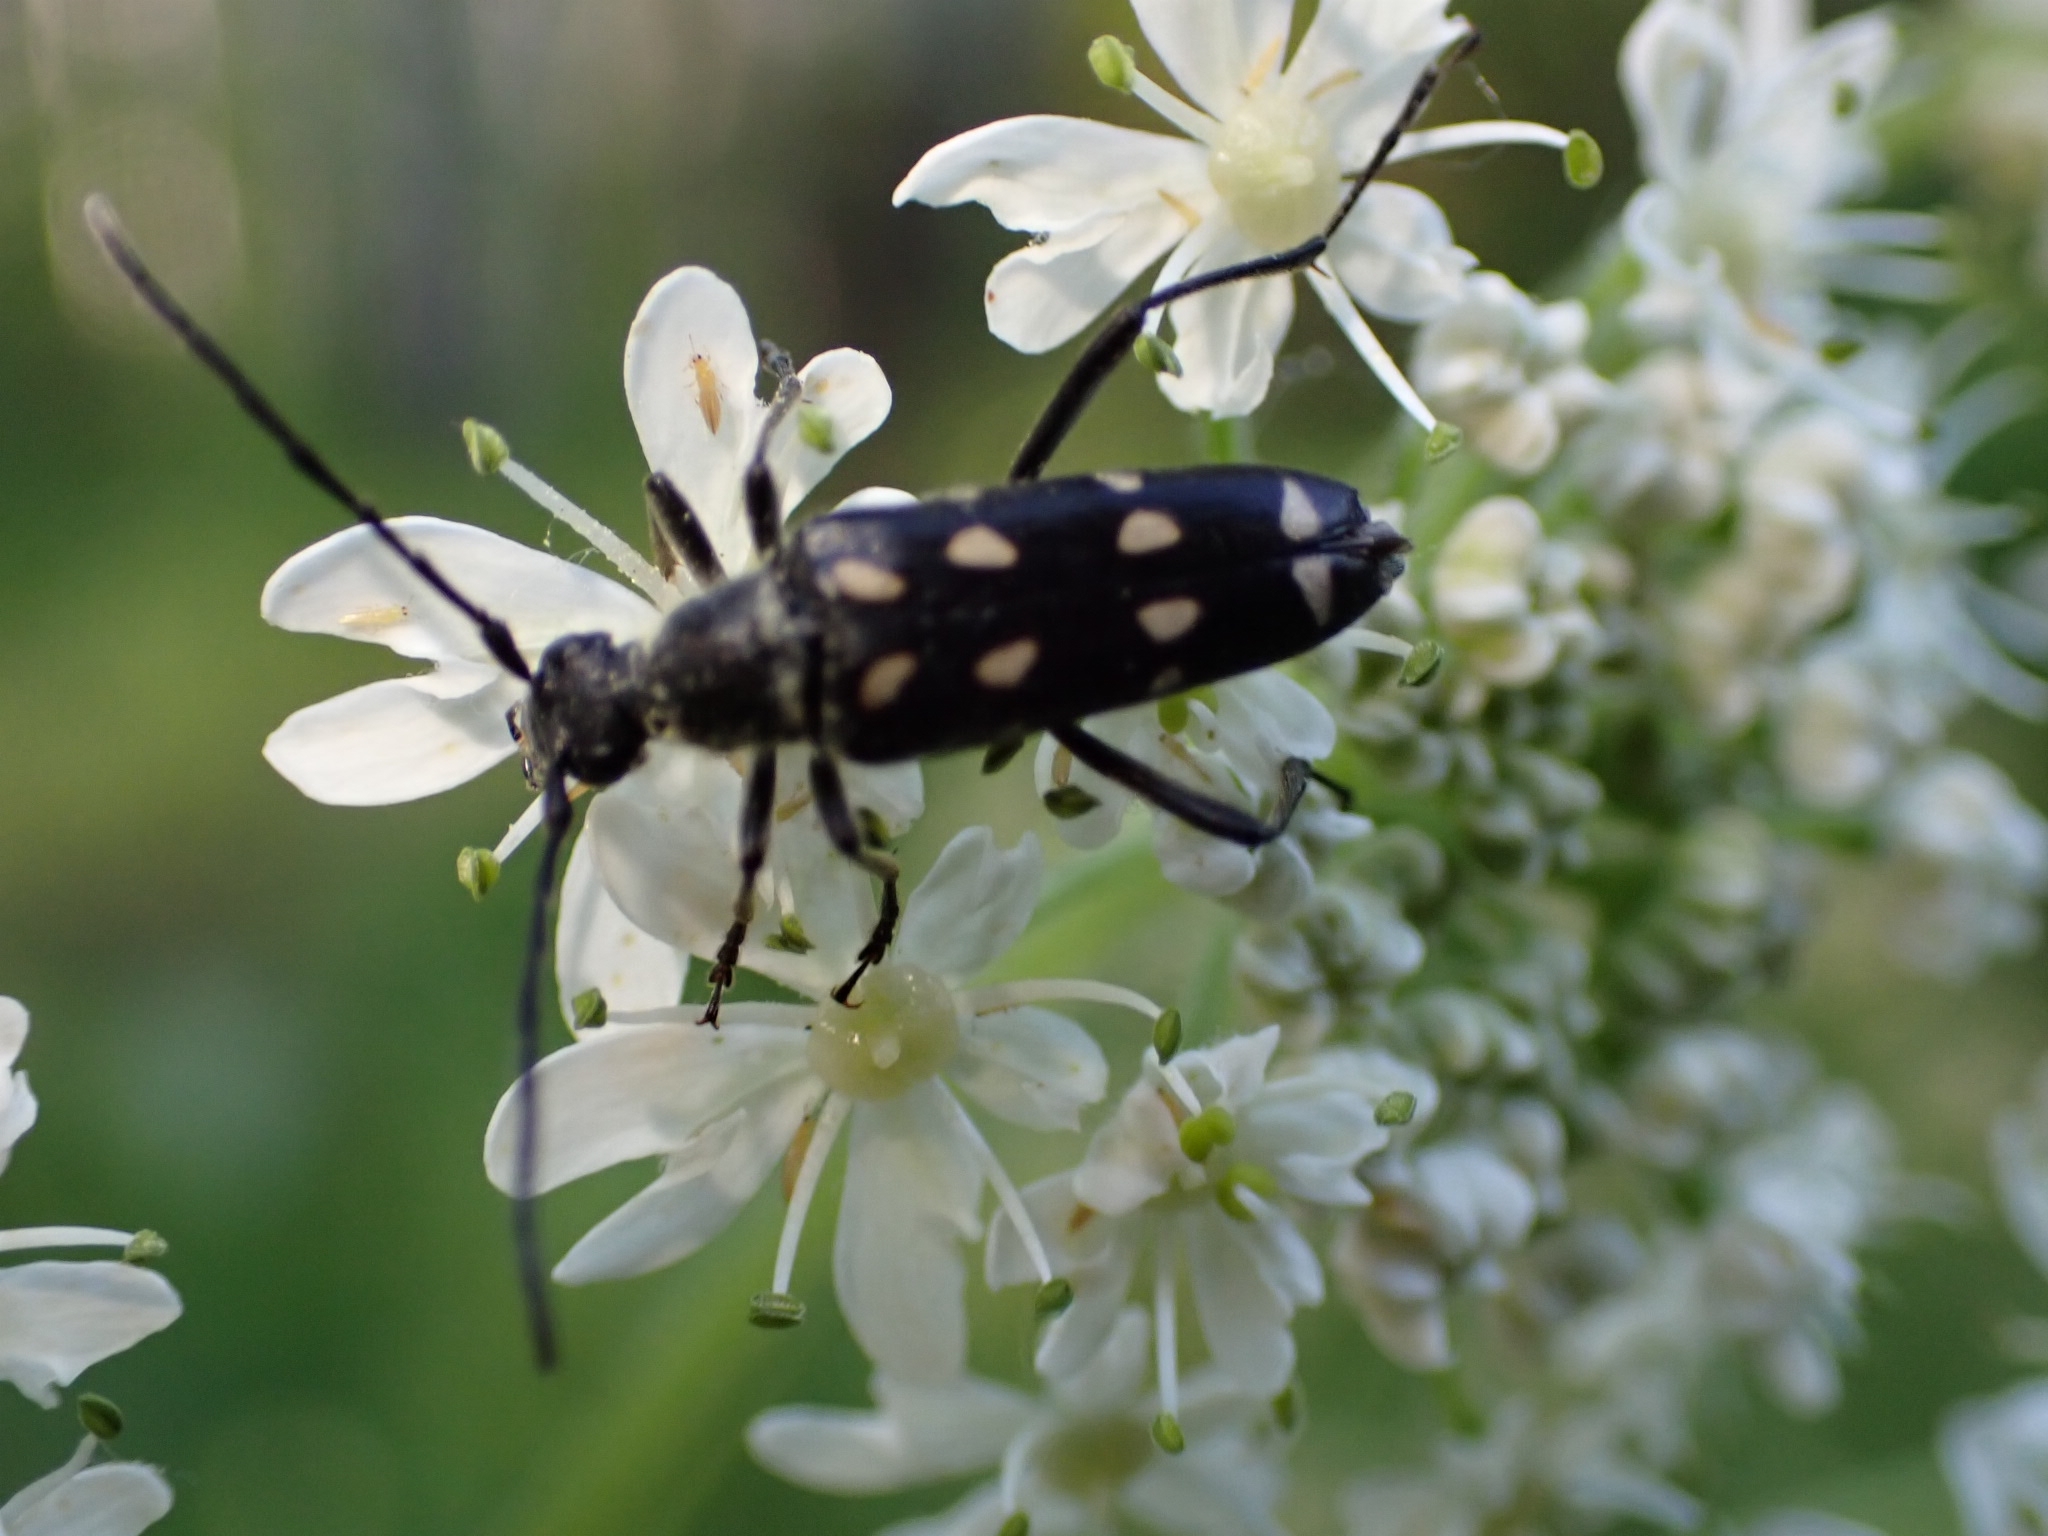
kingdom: Animalia
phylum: Arthropoda
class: Insecta
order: Coleoptera
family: Cerambycidae
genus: Leptura
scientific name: Leptura duodecimguttata
